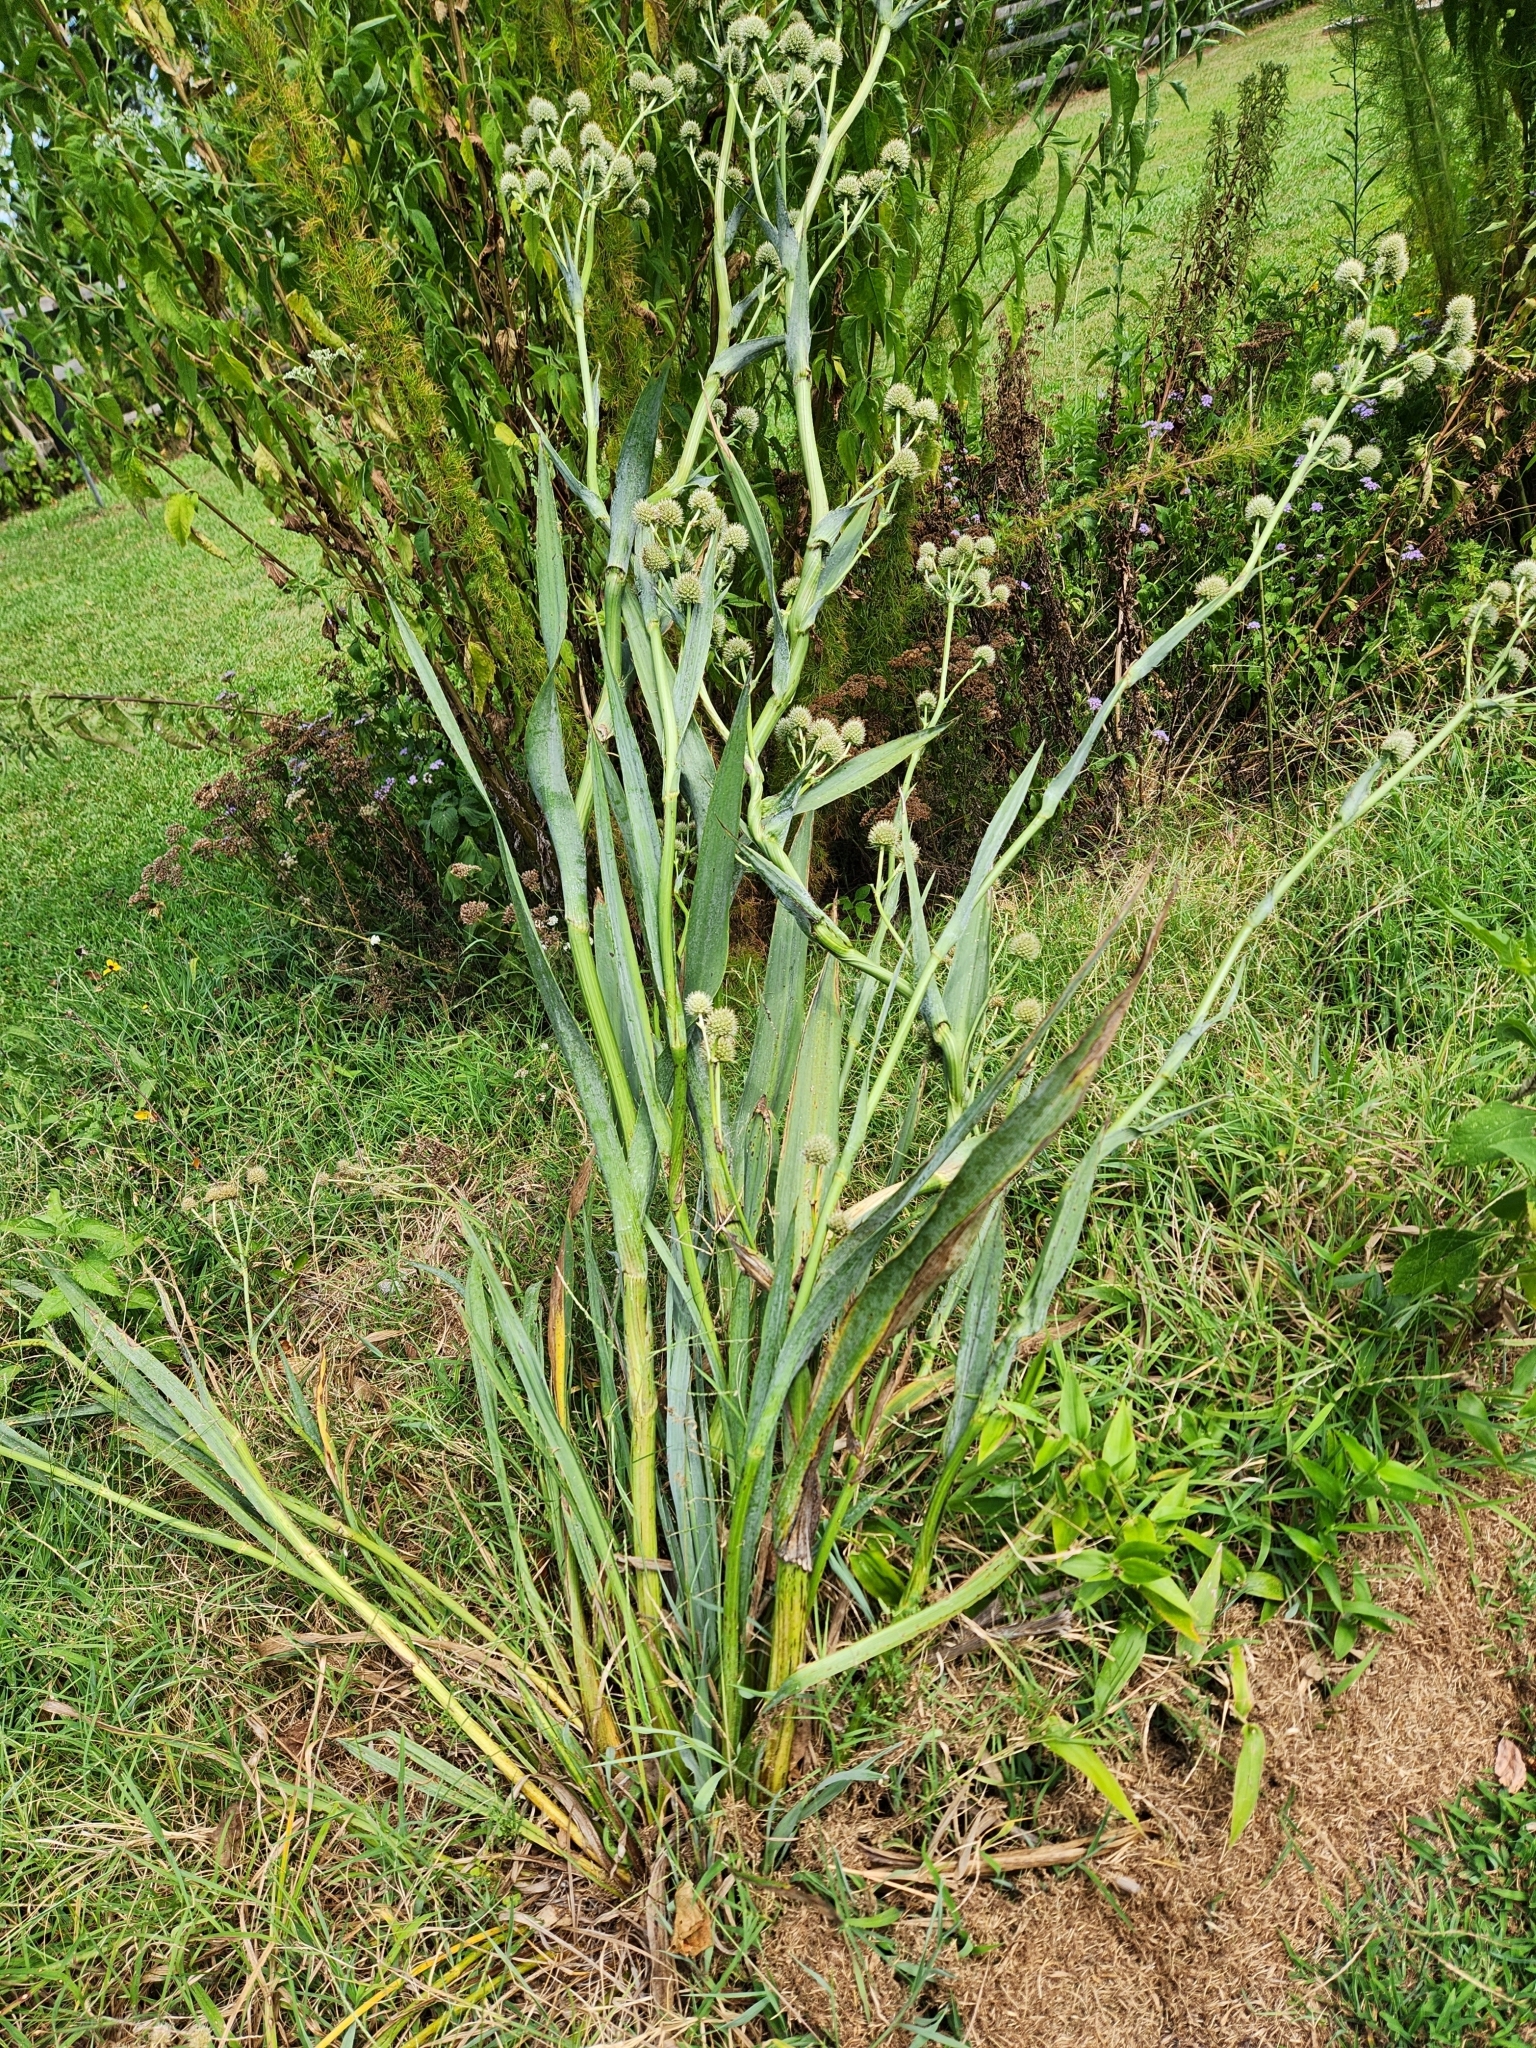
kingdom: Plantae
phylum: Tracheophyta
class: Magnoliopsida
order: Apiales
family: Apiaceae
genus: Eryngium
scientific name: Eryngium yuccifolium
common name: Button eryngo
